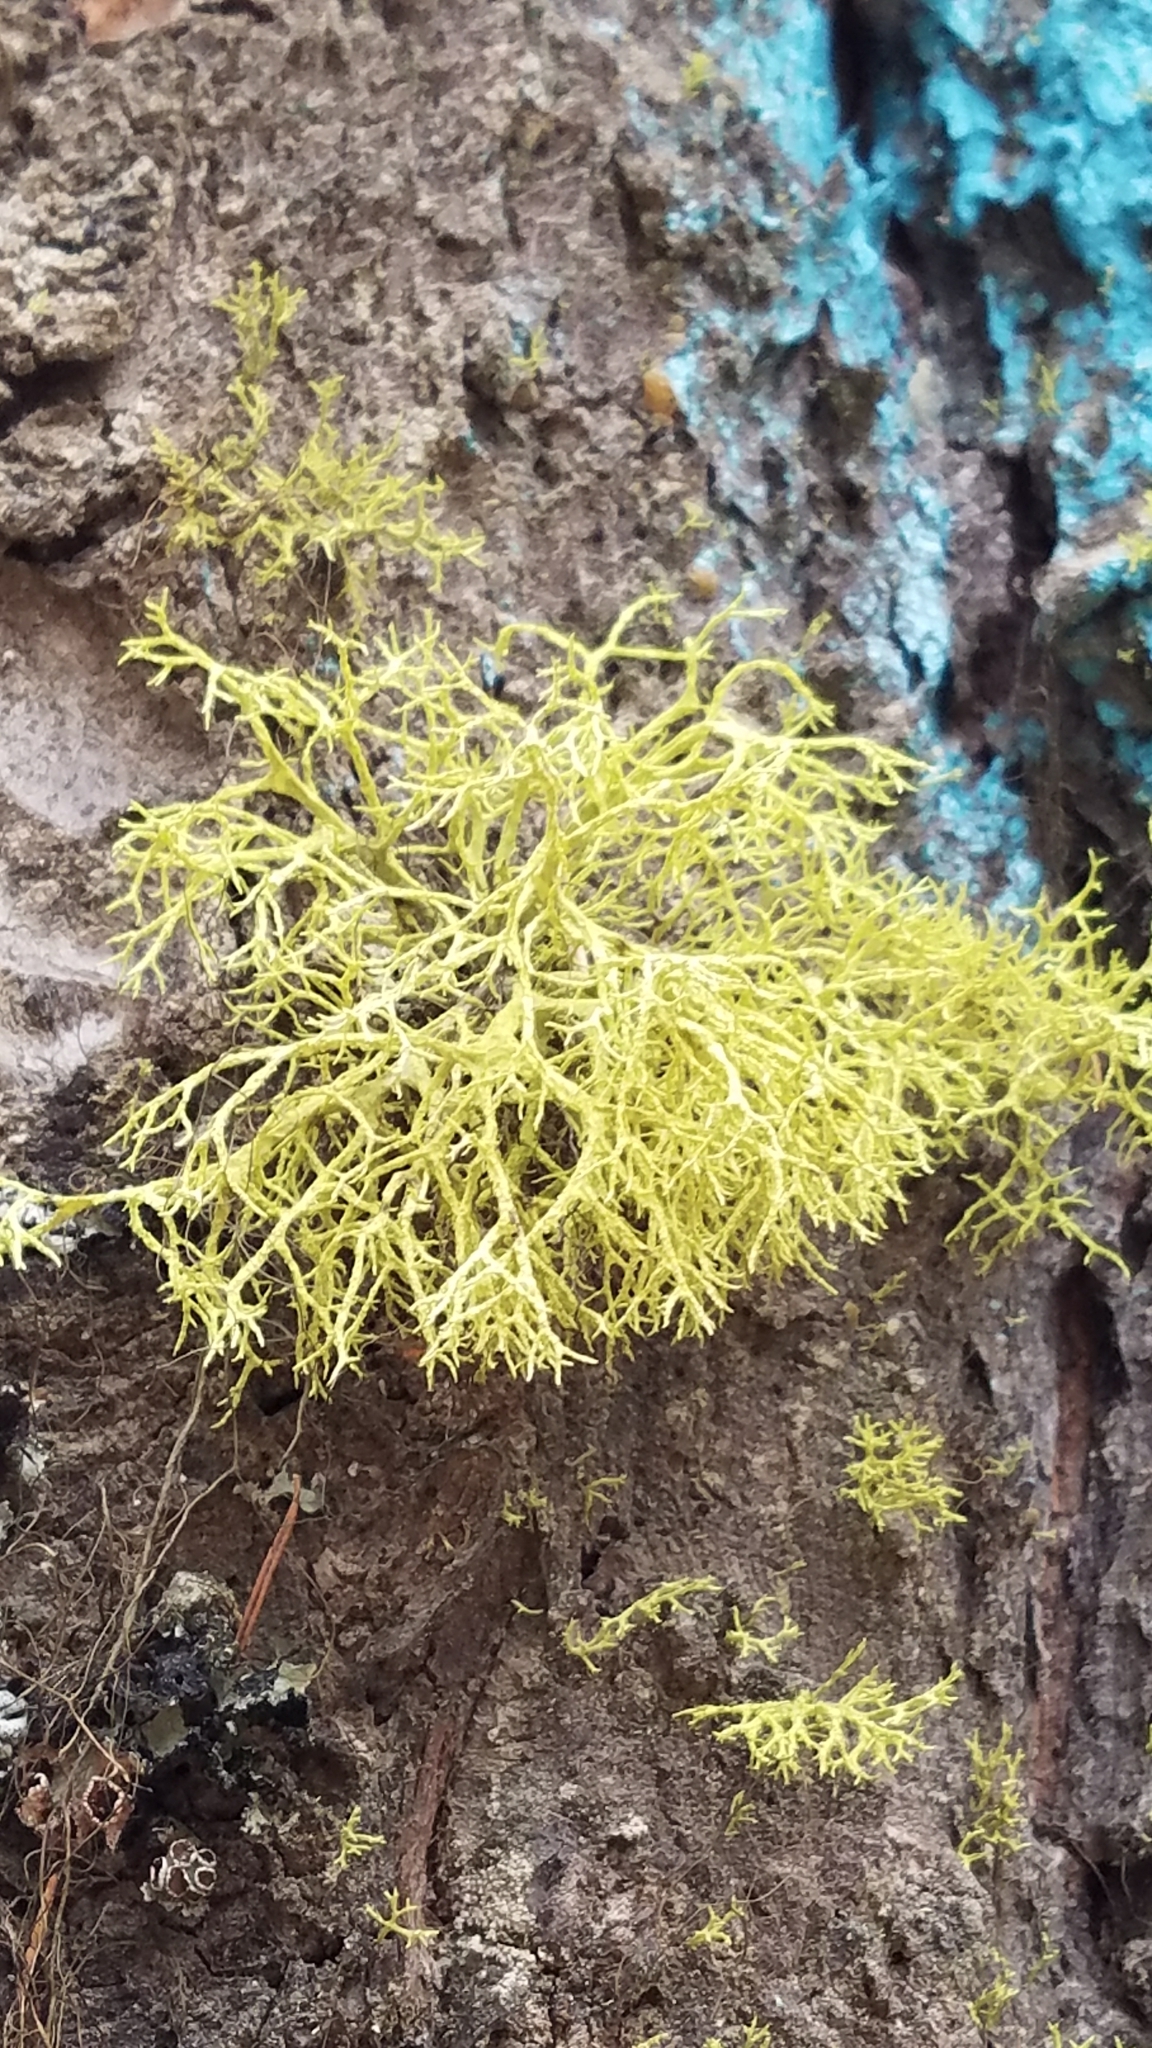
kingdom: Fungi
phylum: Ascomycota
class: Lecanoromycetes
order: Lecanorales
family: Parmeliaceae
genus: Letharia
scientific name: Letharia vulpina
